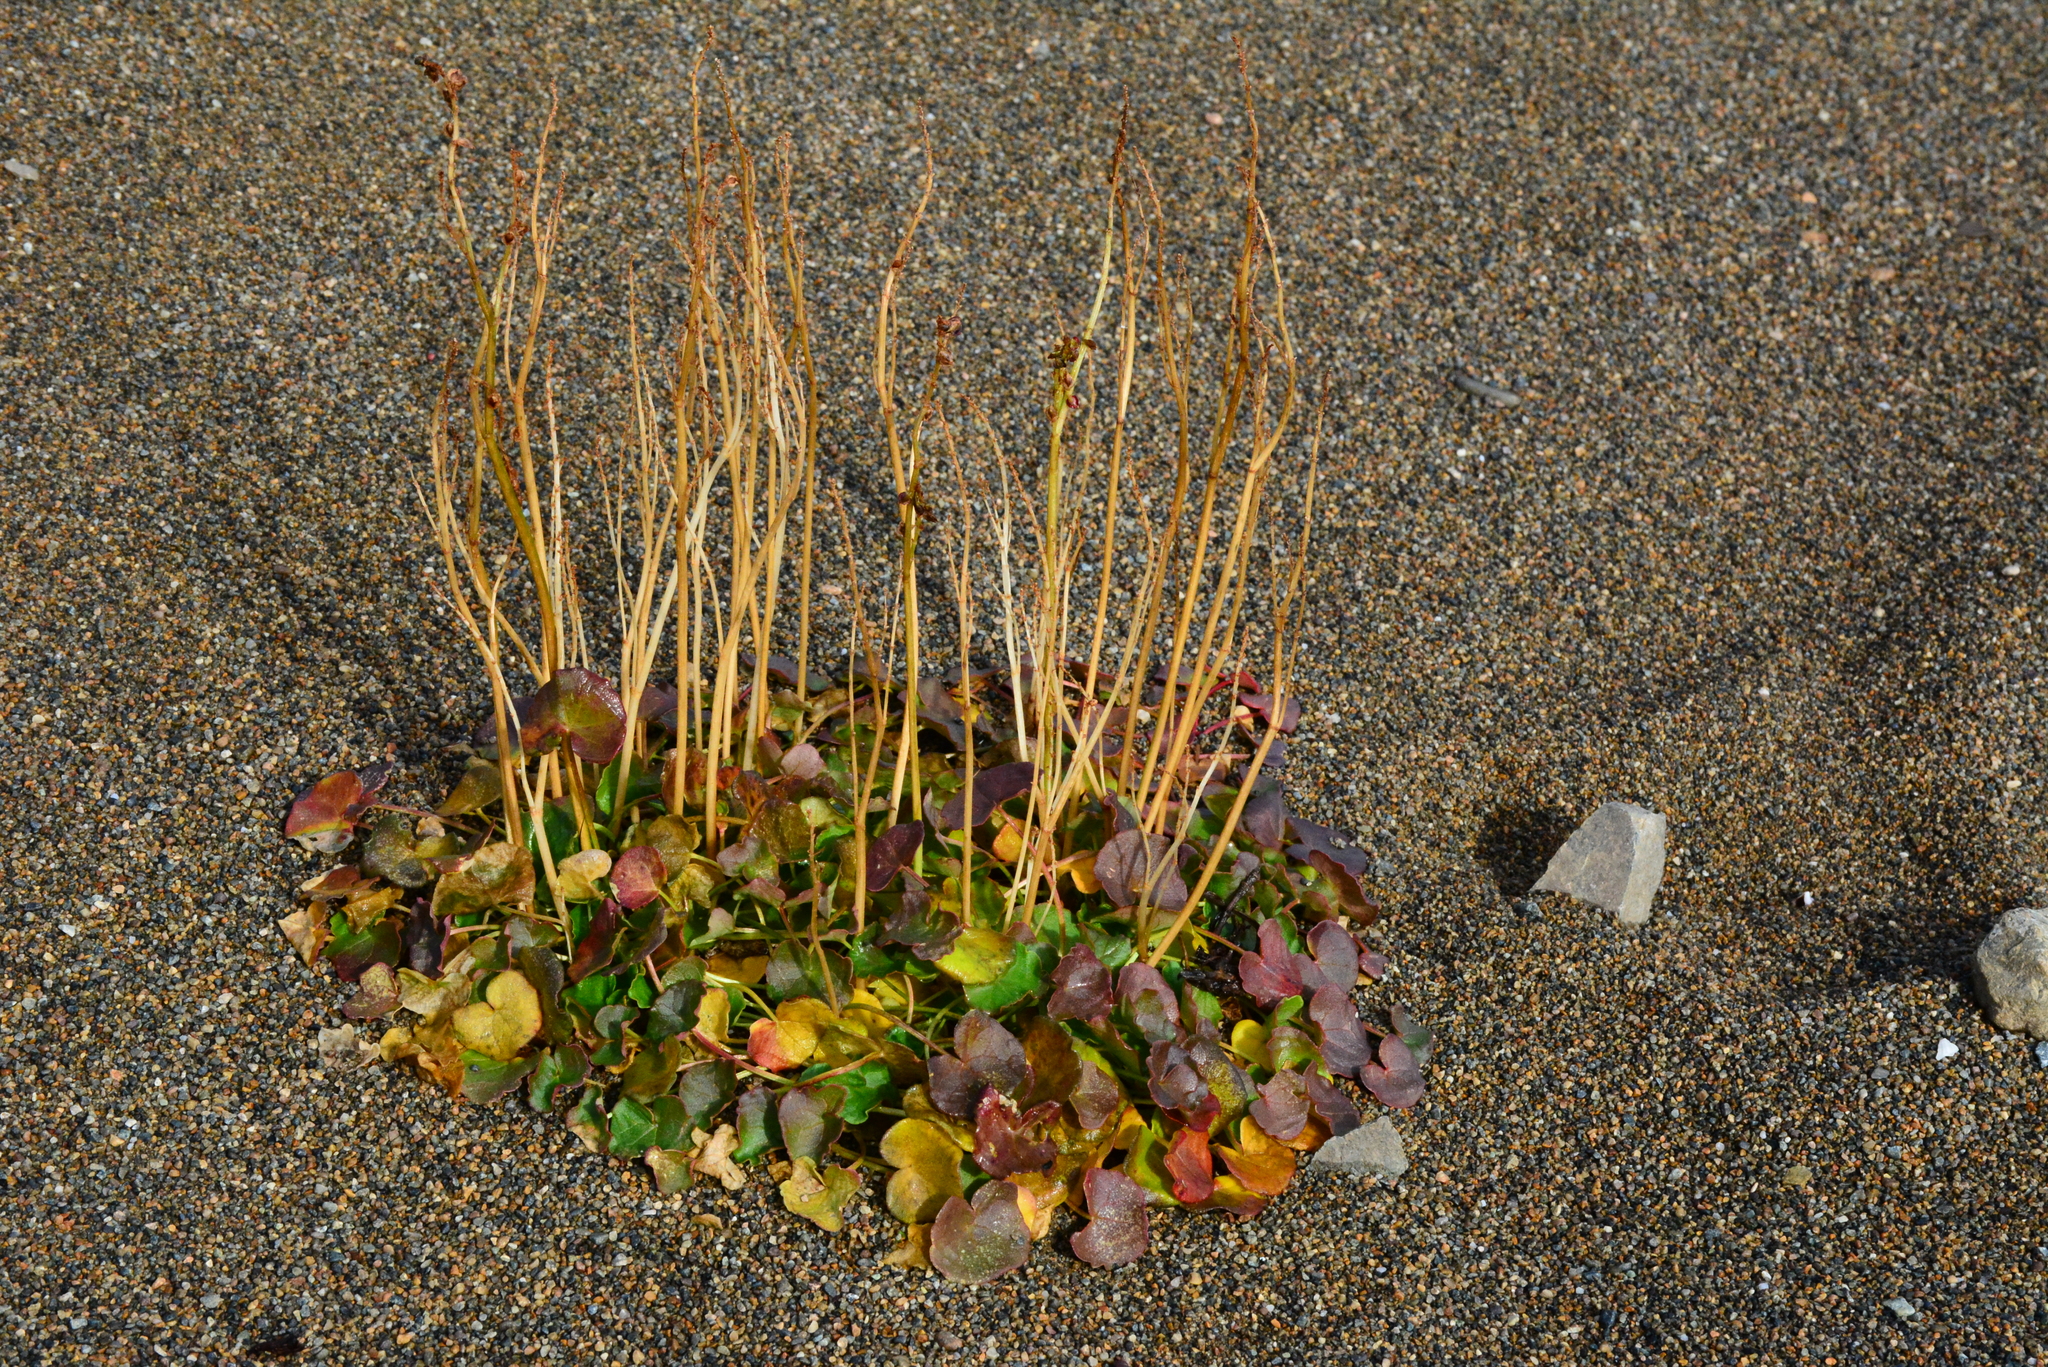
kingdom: Plantae
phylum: Tracheophyta
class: Magnoliopsida
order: Caryophyllales
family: Polygonaceae
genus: Oxyria
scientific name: Oxyria digyna
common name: Alpine mountain-sorrel
